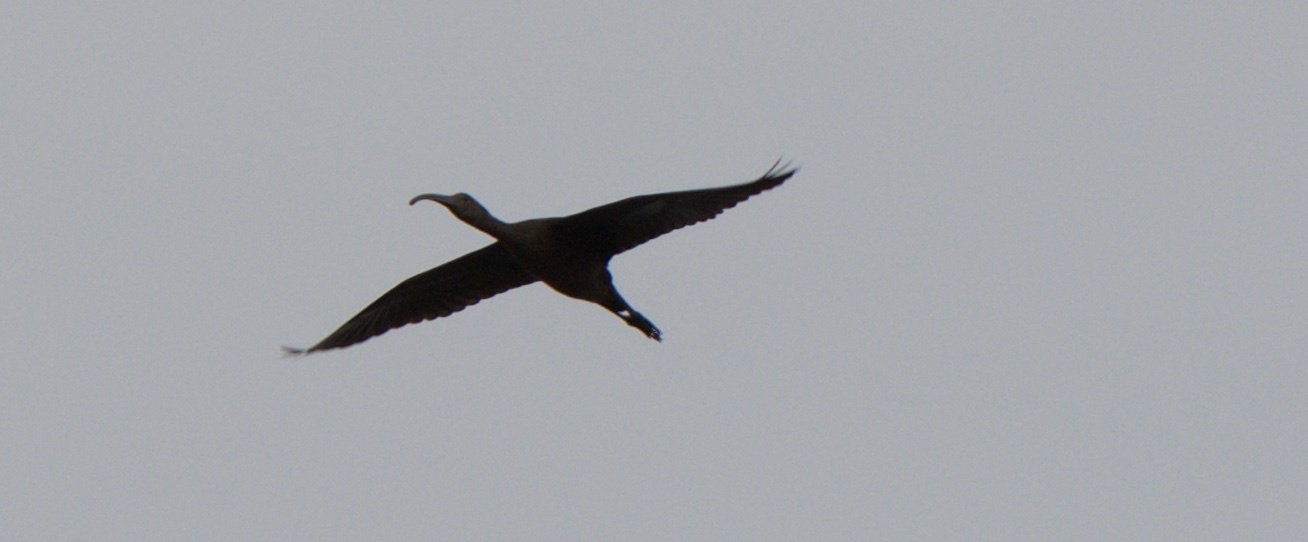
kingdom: Animalia
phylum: Chordata
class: Aves
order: Pelecaniformes
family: Threskiornithidae
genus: Plegadis
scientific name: Plegadis chihi
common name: White-faced ibis
